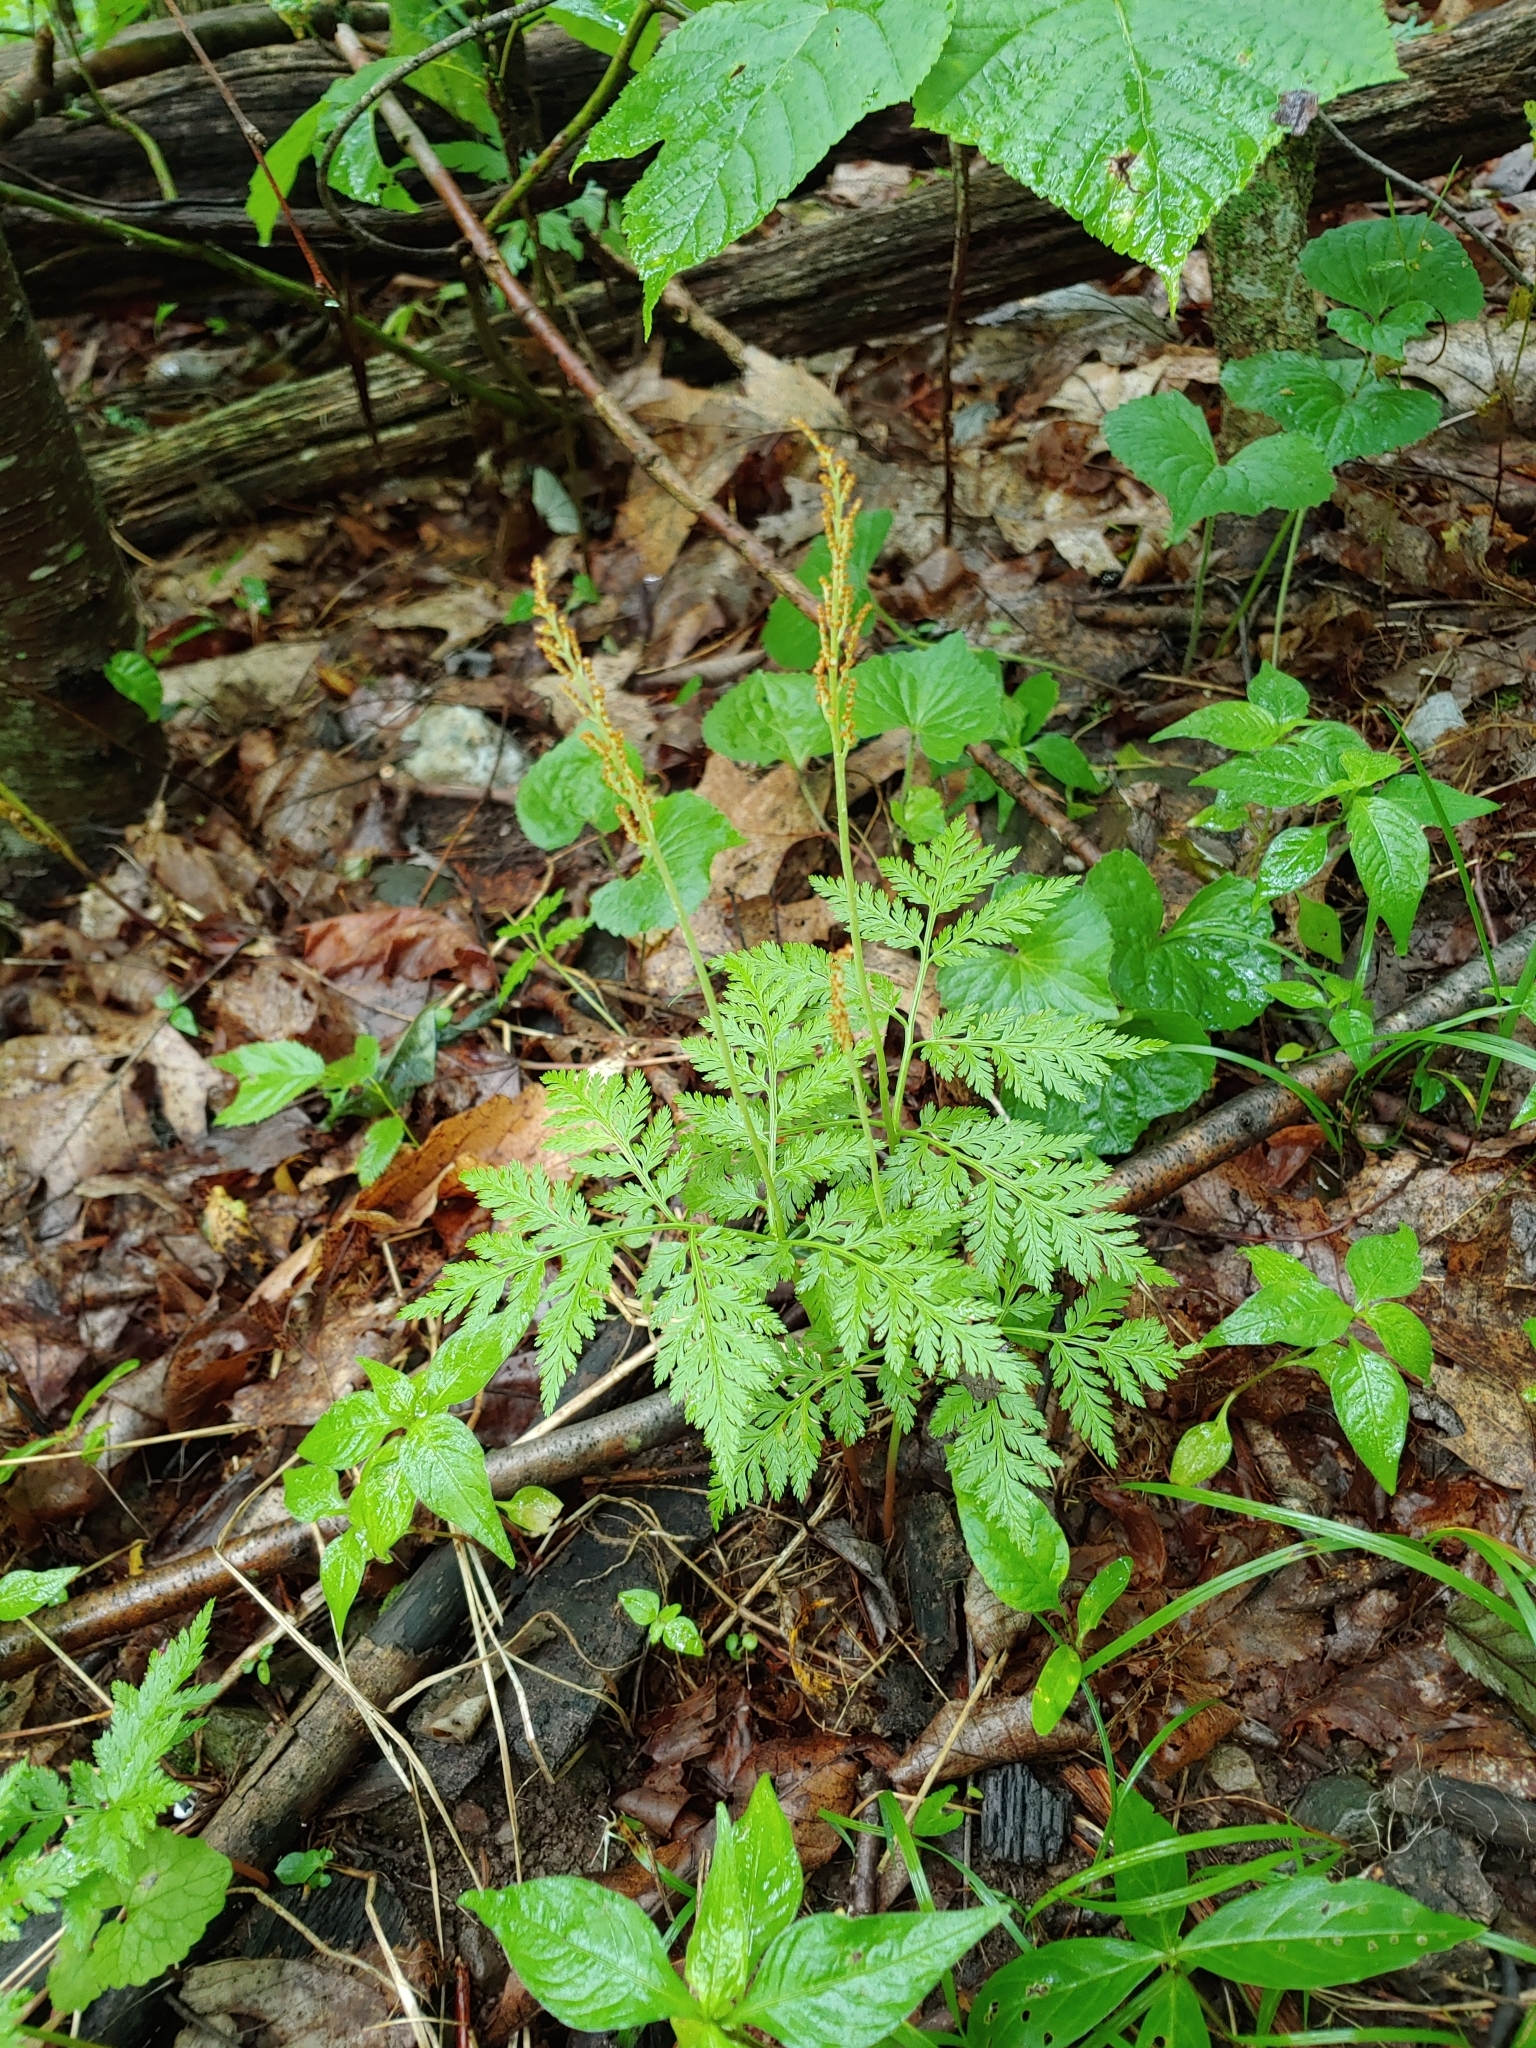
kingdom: Plantae
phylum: Tracheophyta
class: Polypodiopsida
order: Ophioglossales
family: Ophioglossaceae
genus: Botrypus
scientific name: Botrypus virginianus
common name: Common grapefern
